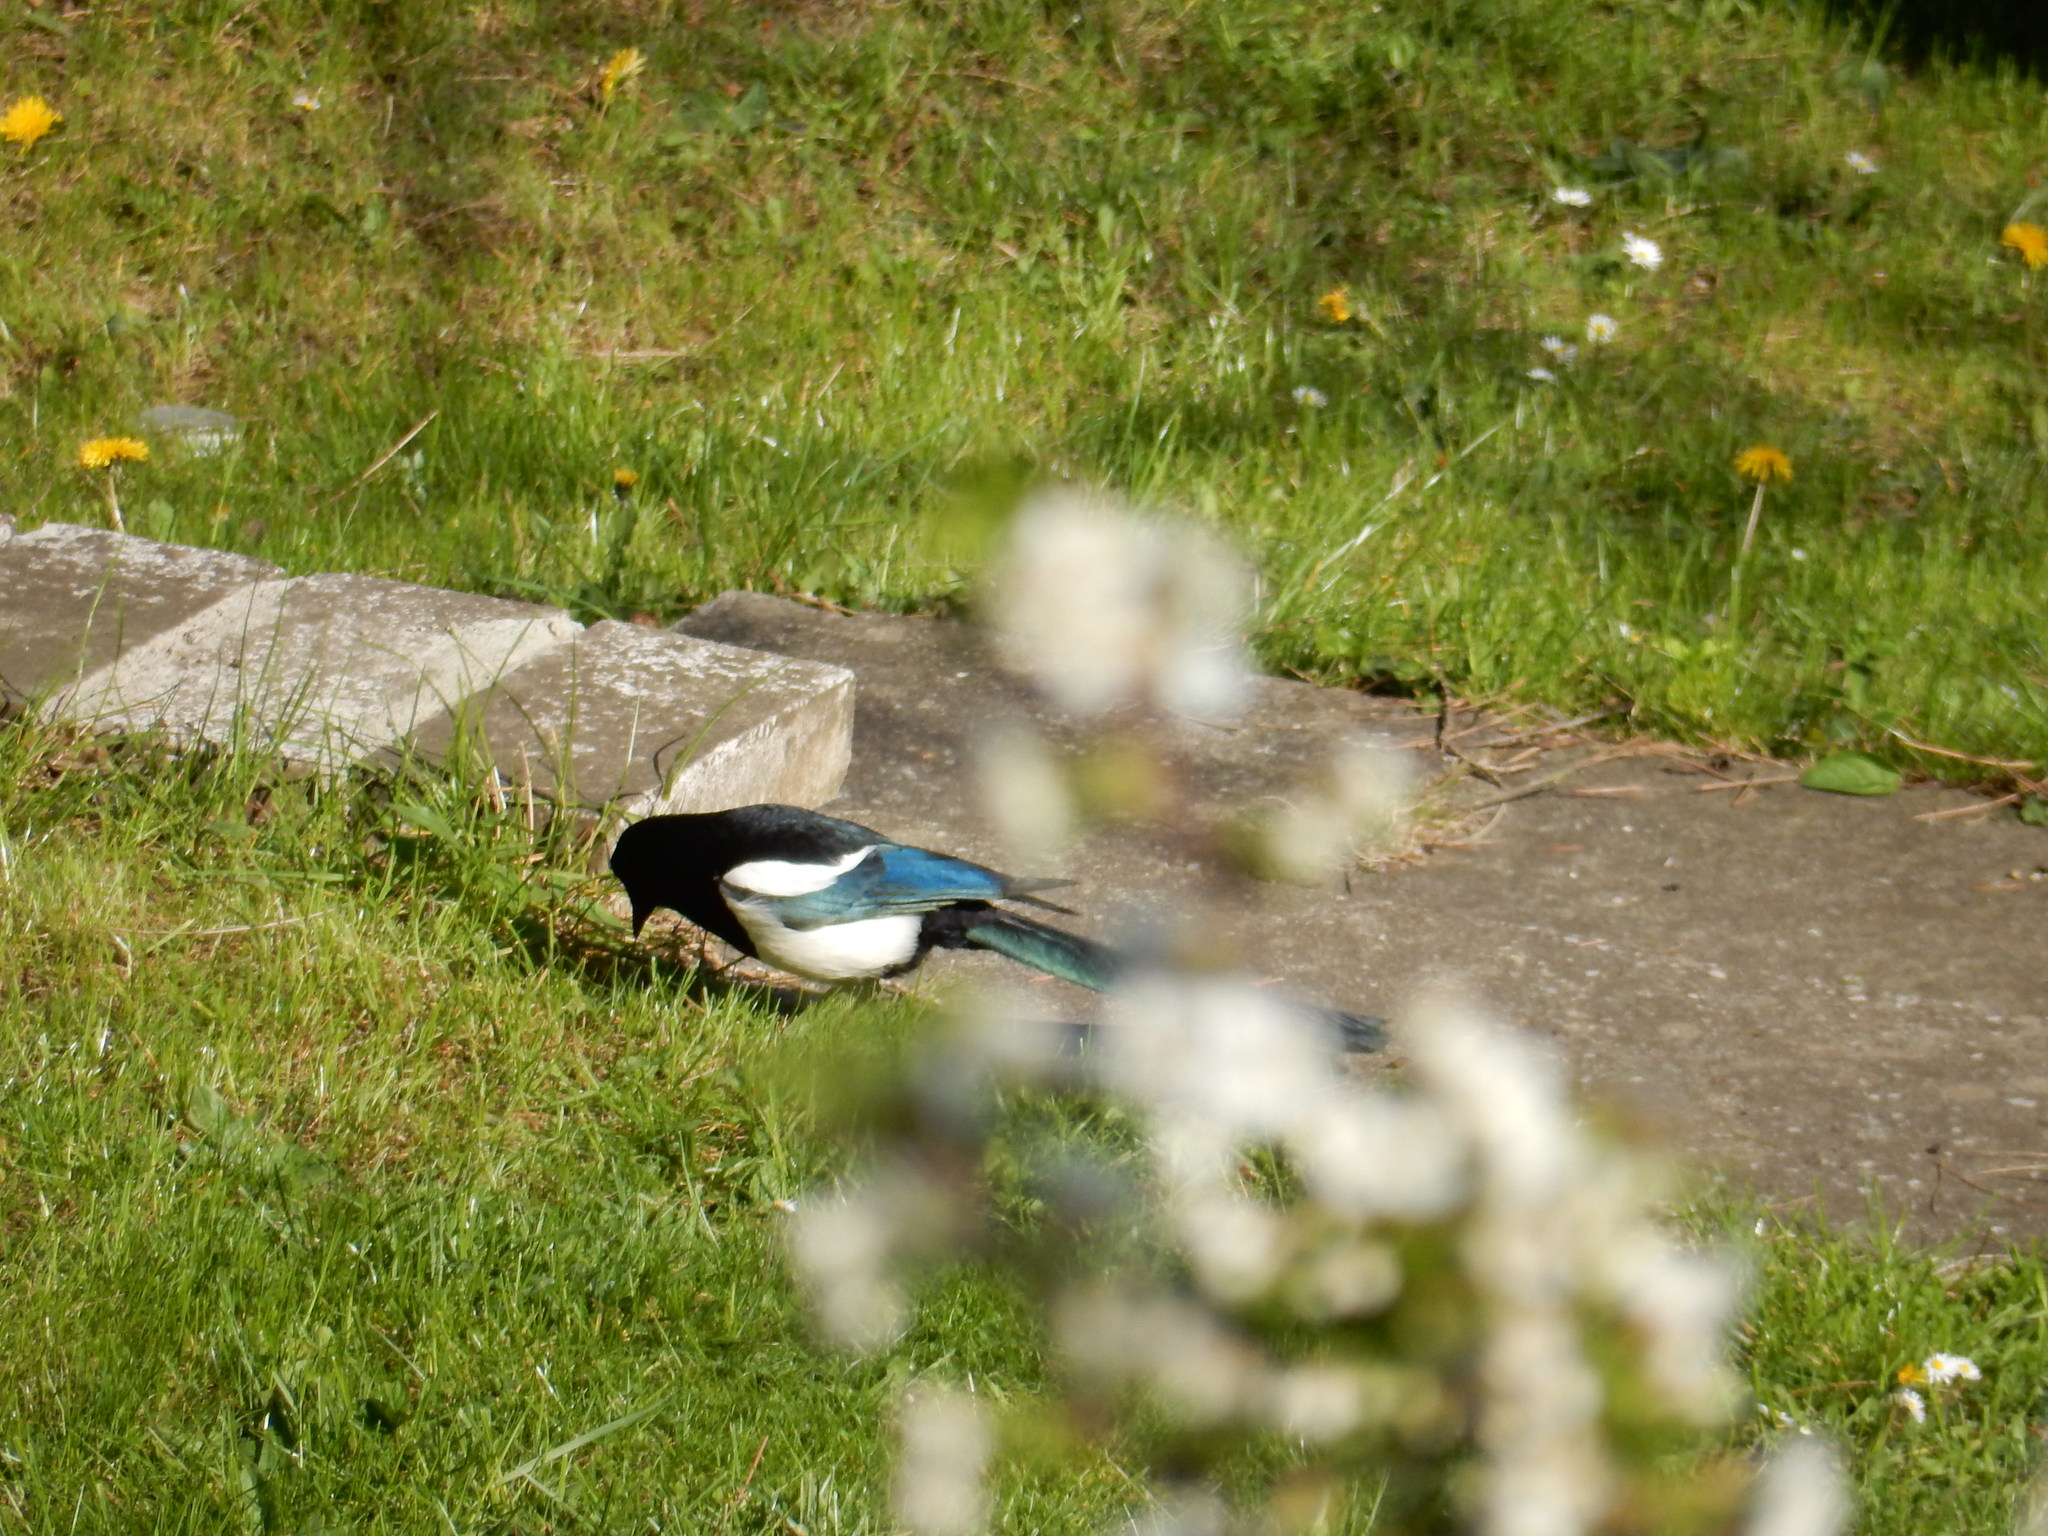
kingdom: Animalia
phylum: Chordata
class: Aves
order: Passeriformes
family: Corvidae
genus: Pica
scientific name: Pica pica
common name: Eurasian magpie
